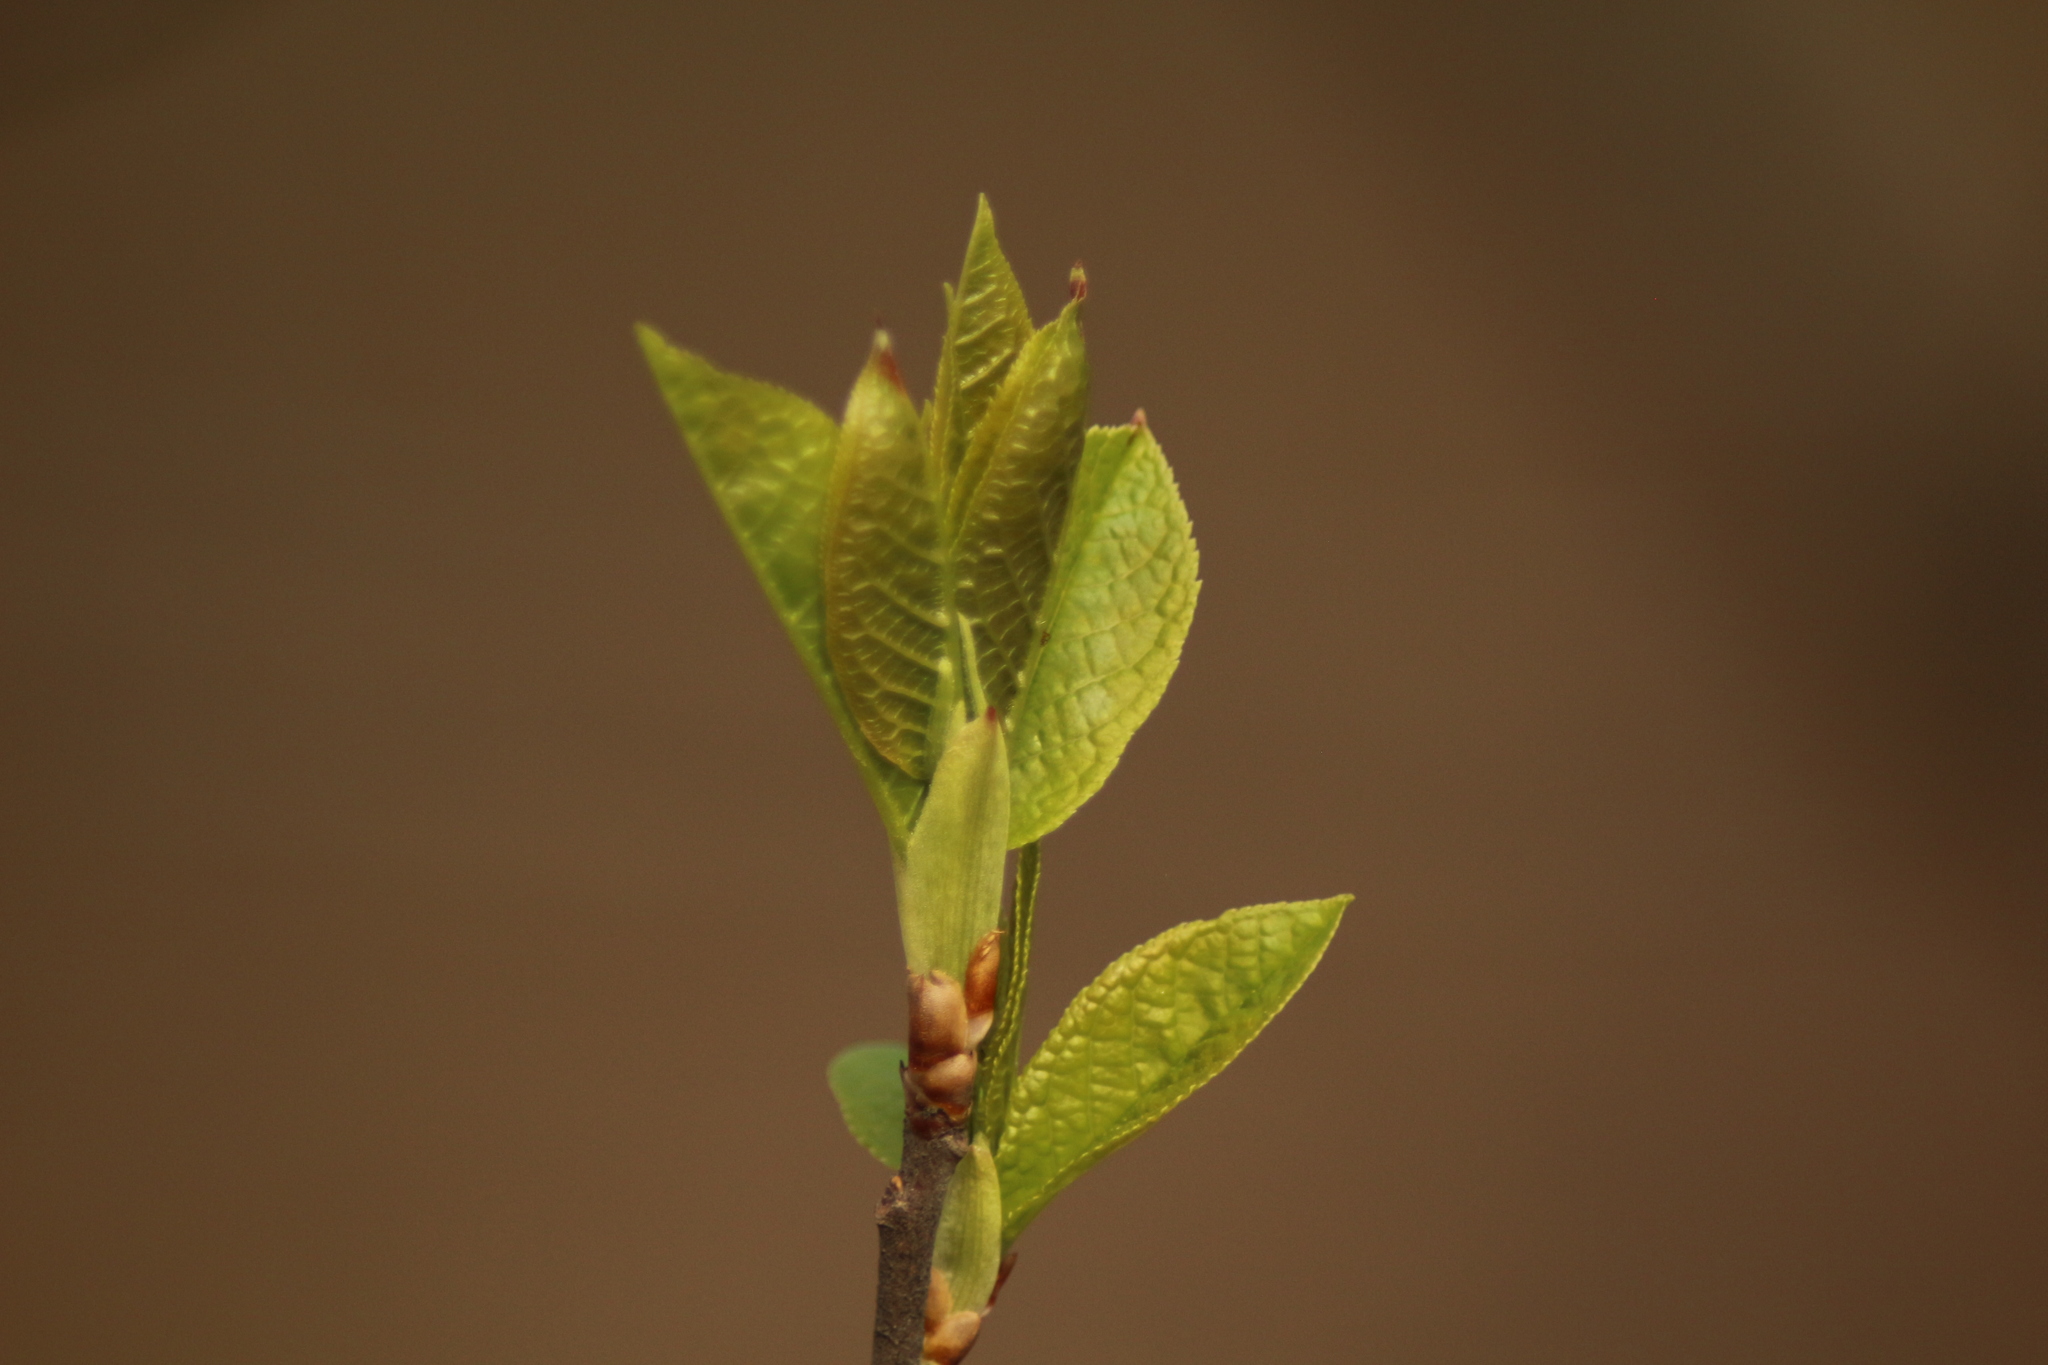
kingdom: Plantae
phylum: Tracheophyta
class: Magnoliopsida
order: Rosales
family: Rosaceae
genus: Prunus
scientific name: Prunus padus
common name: Bird cherry
